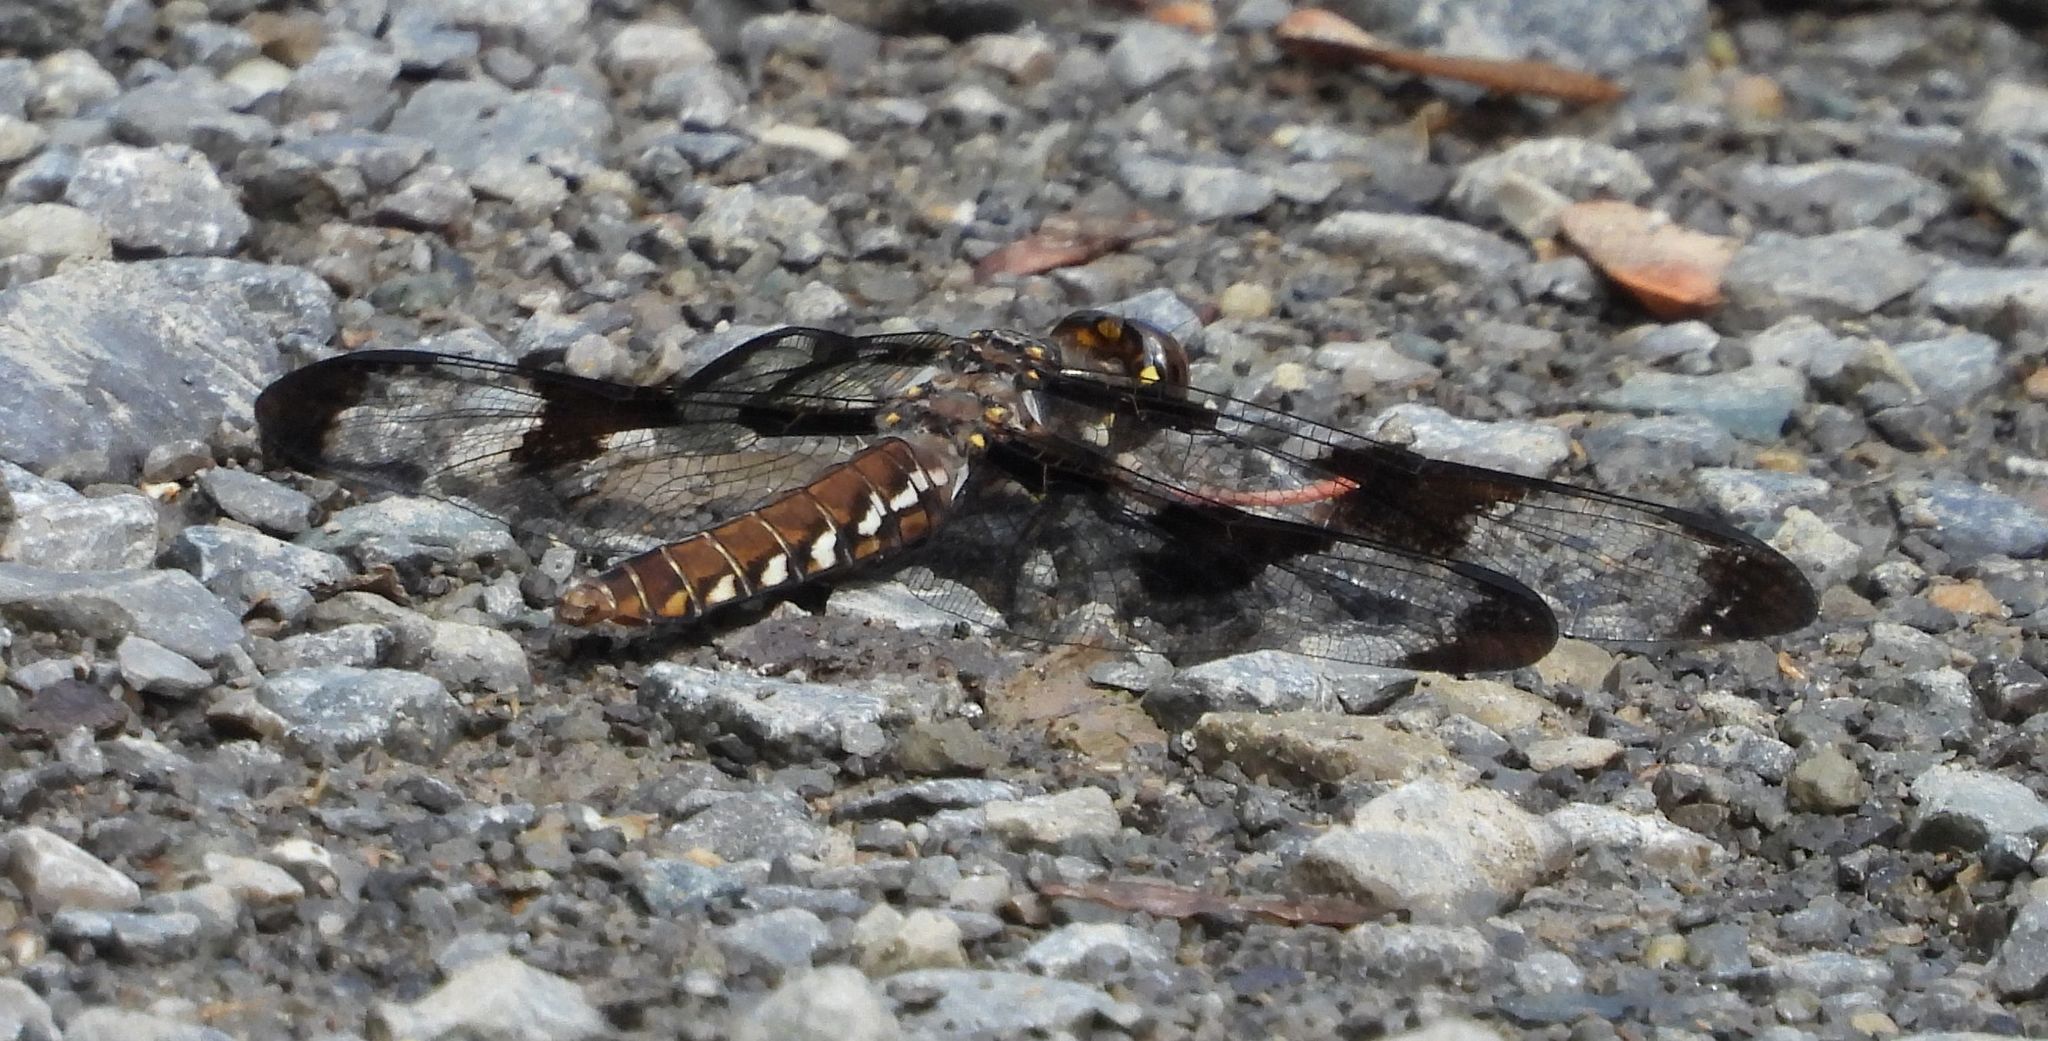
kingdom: Animalia
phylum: Arthropoda
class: Insecta
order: Odonata
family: Libellulidae
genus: Plathemis
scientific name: Plathemis lydia
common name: Common whitetail
